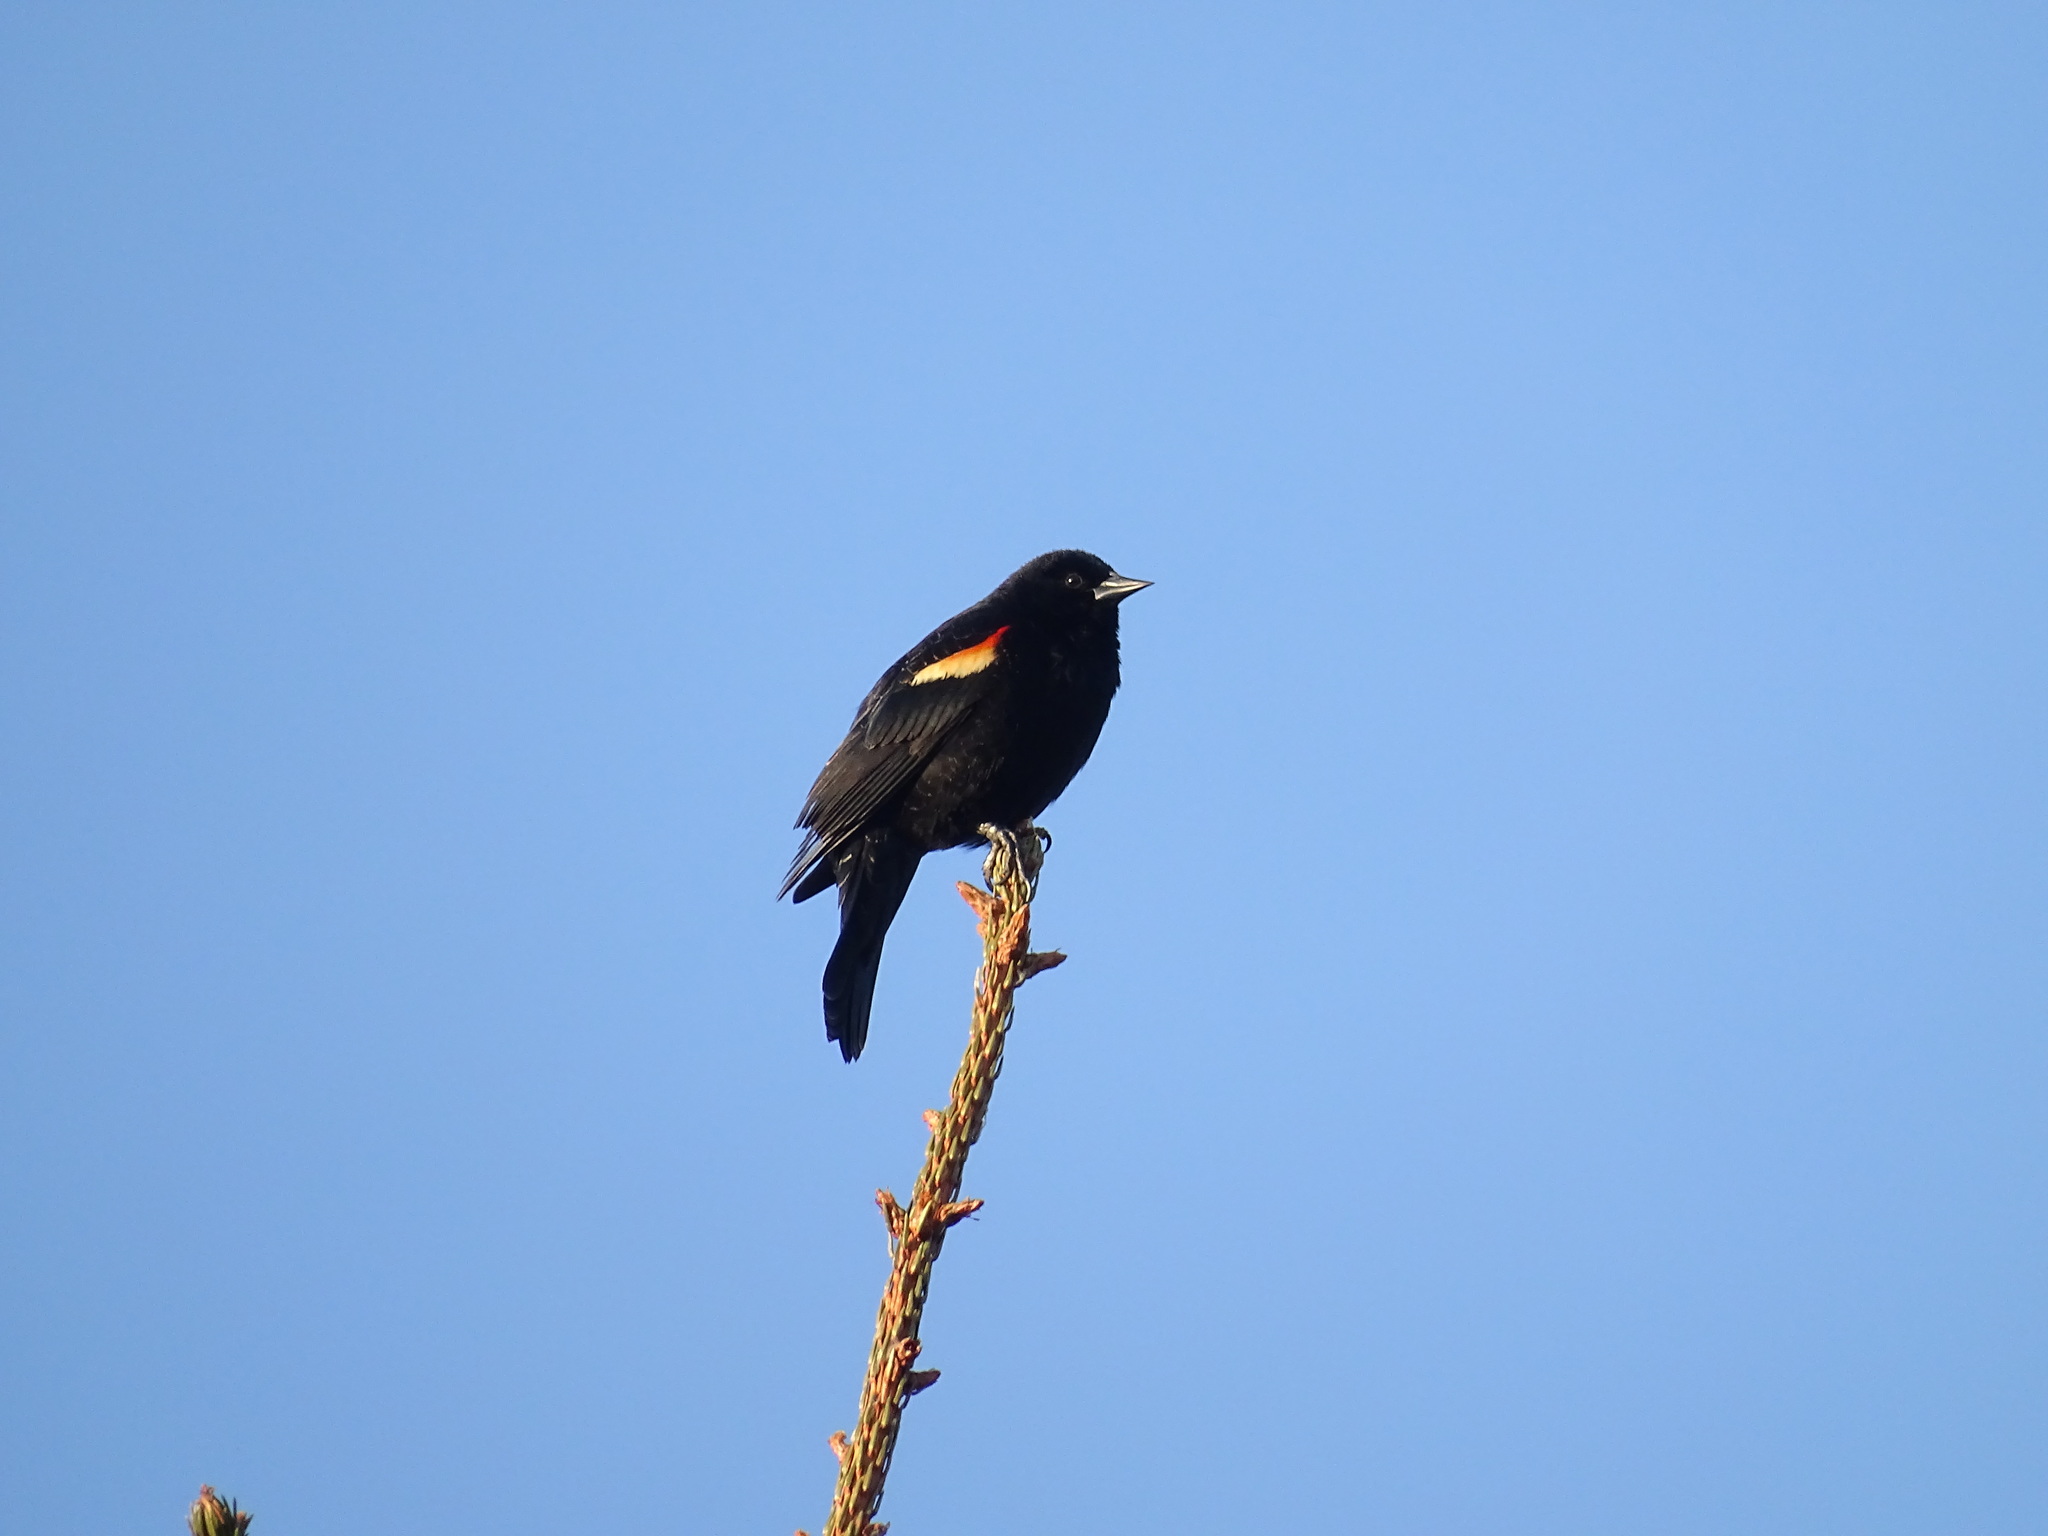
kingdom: Animalia
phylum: Chordata
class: Aves
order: Passeriformes
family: Icteridae
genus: Agelaius
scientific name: Agelaius phoeniceus
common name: Red-winged blackbird
